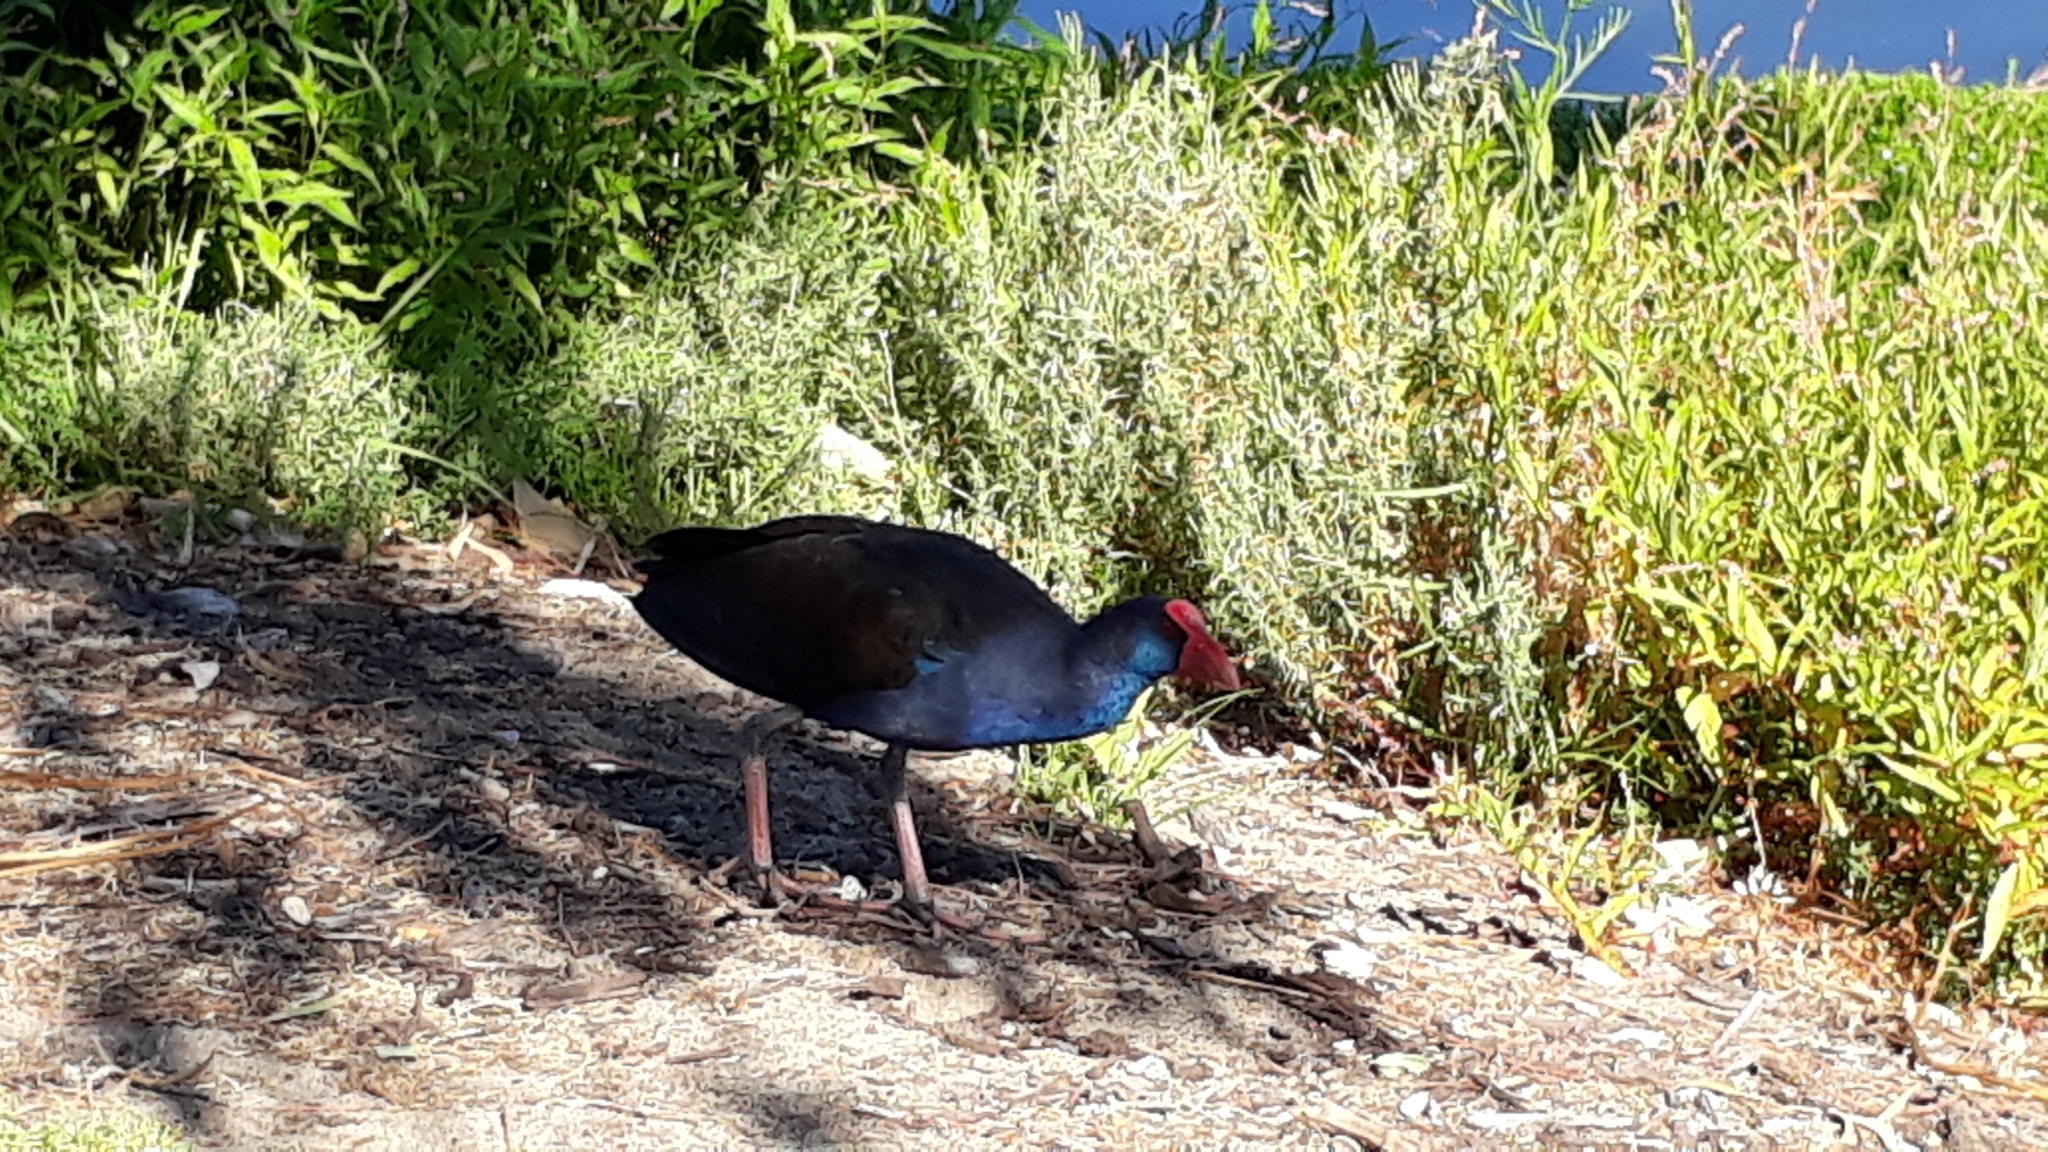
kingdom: Animalia
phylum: Chordata
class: Aves
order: Gruiformes
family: Rallidae
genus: Gallinula
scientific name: Gallinula tenebrosa
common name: Dusky moorhen
